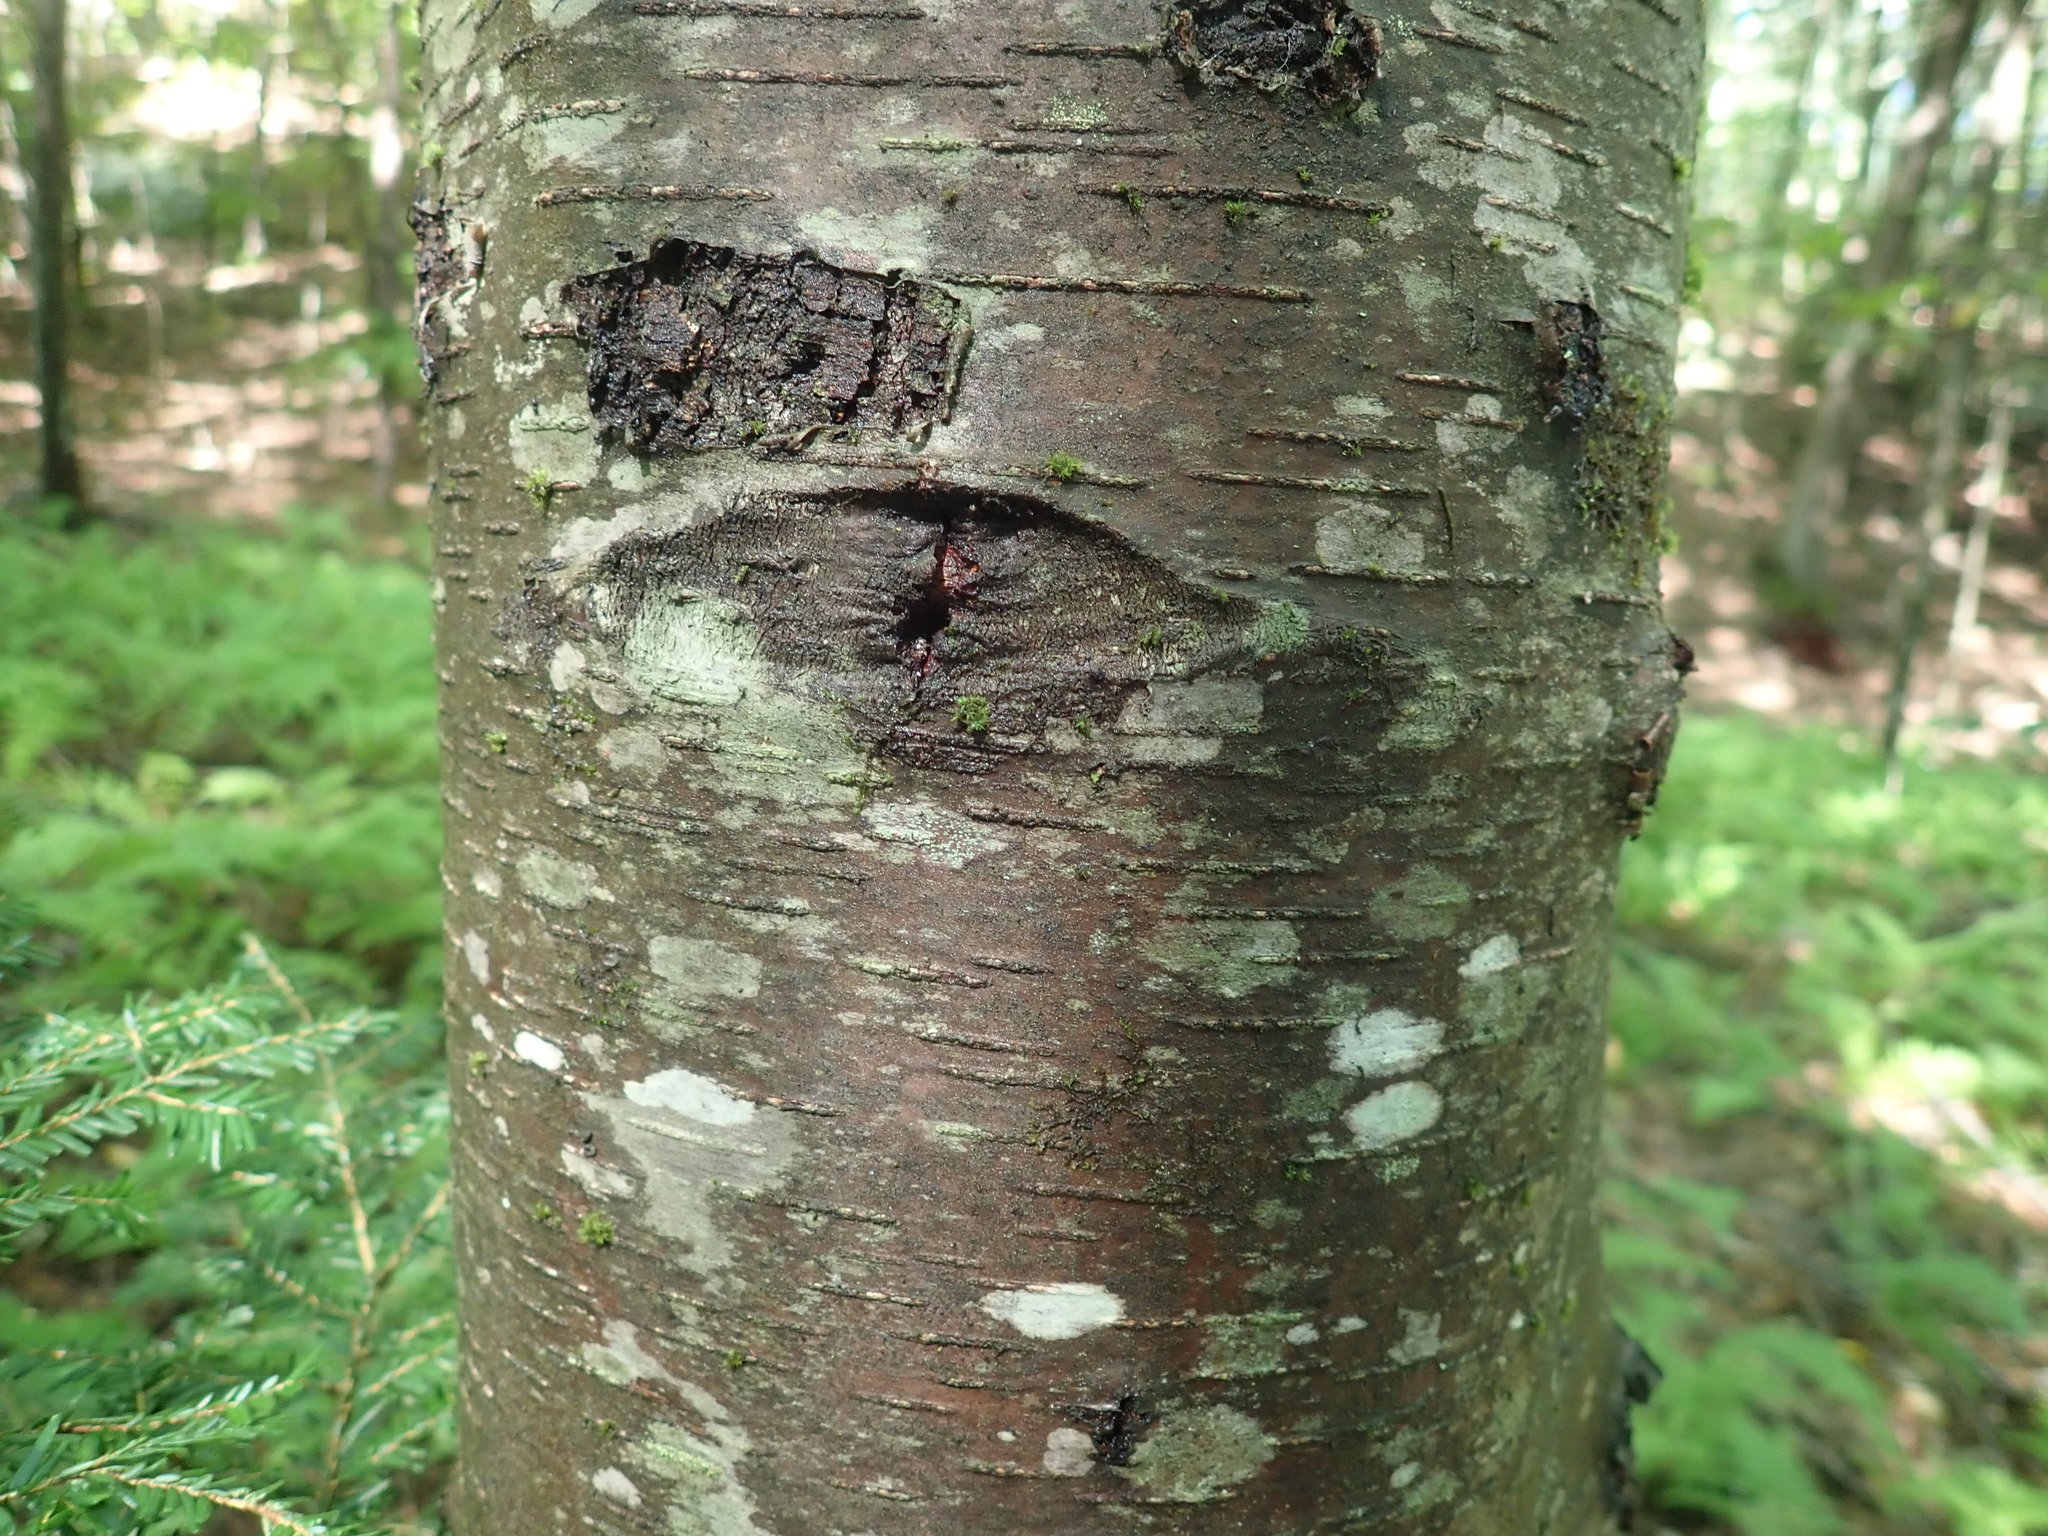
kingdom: Plantae
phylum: Tracheophyta
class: Magnoliopsida
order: Fagales
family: Betulaceae
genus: Betula
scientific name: Betula lenta
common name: Black birch
